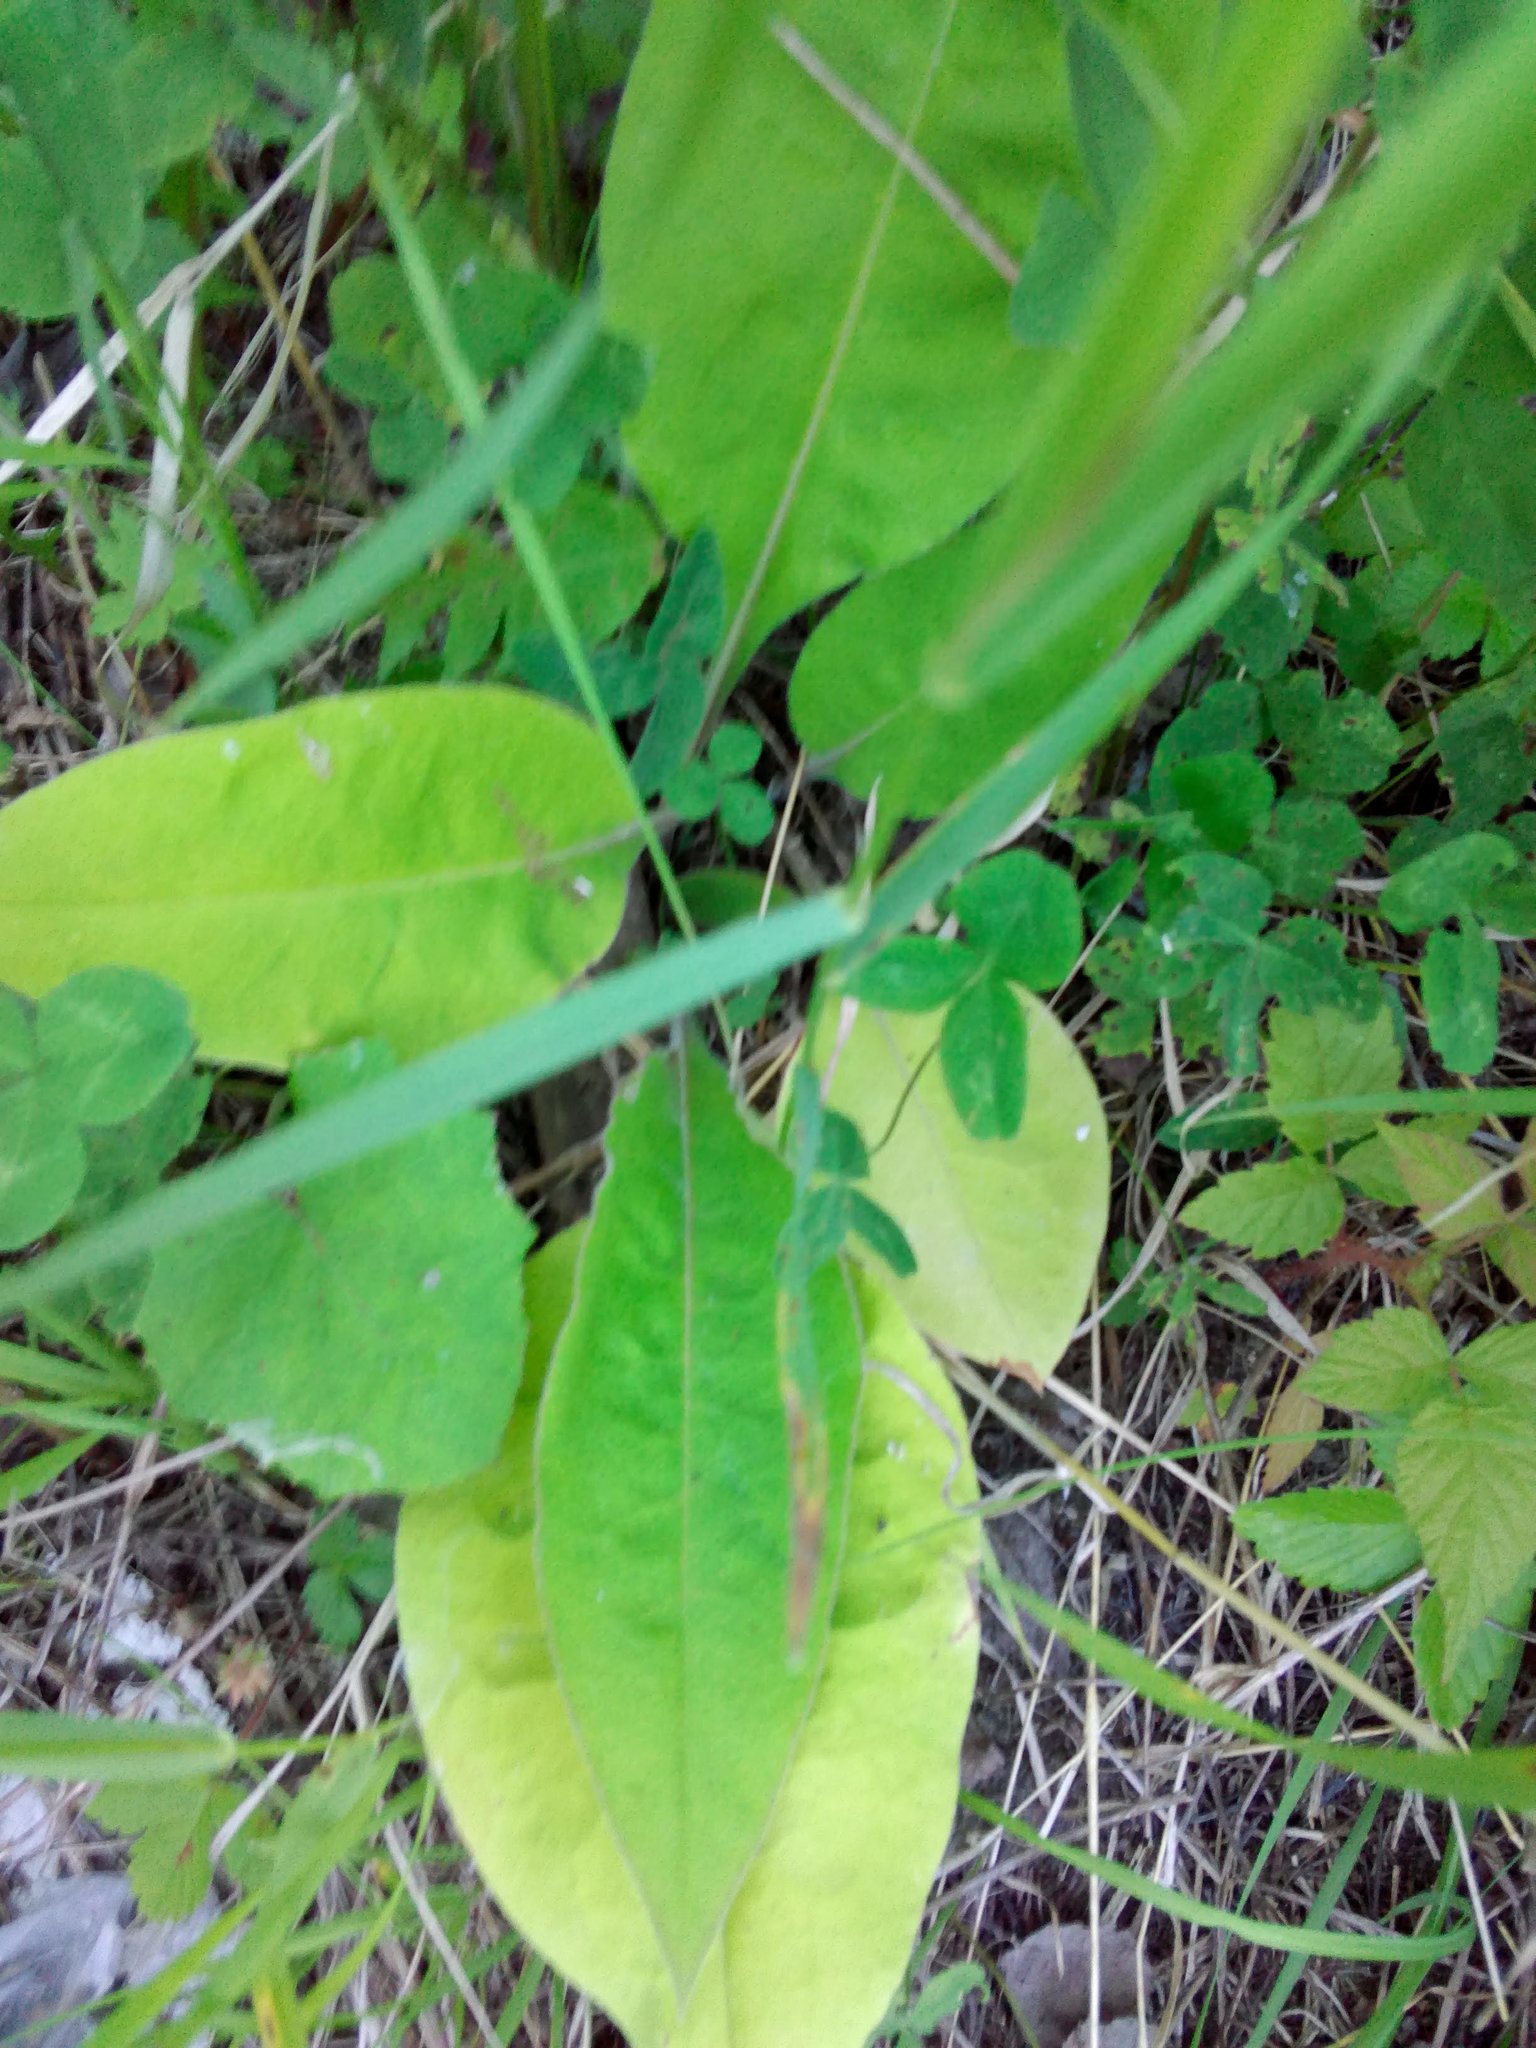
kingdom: Plantae
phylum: Tracheophyta
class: Magnoliopsida
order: Boraginales
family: Boraginaceae
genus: Pulmonaria
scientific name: Pulmonaria mollis
